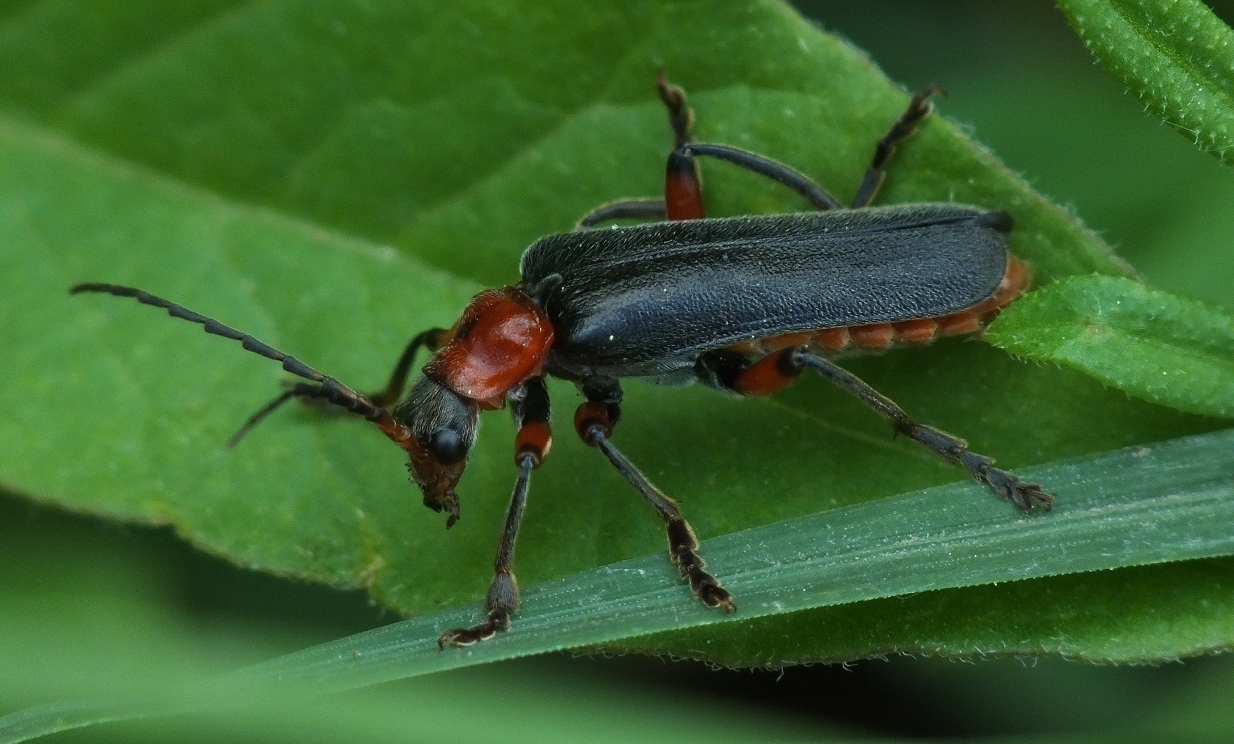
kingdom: Animalia
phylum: Arthropoda
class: Insecta
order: Coleoptera
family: Cantharidae
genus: Cantharis
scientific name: Cantharis rustica
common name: Soldier beetle
